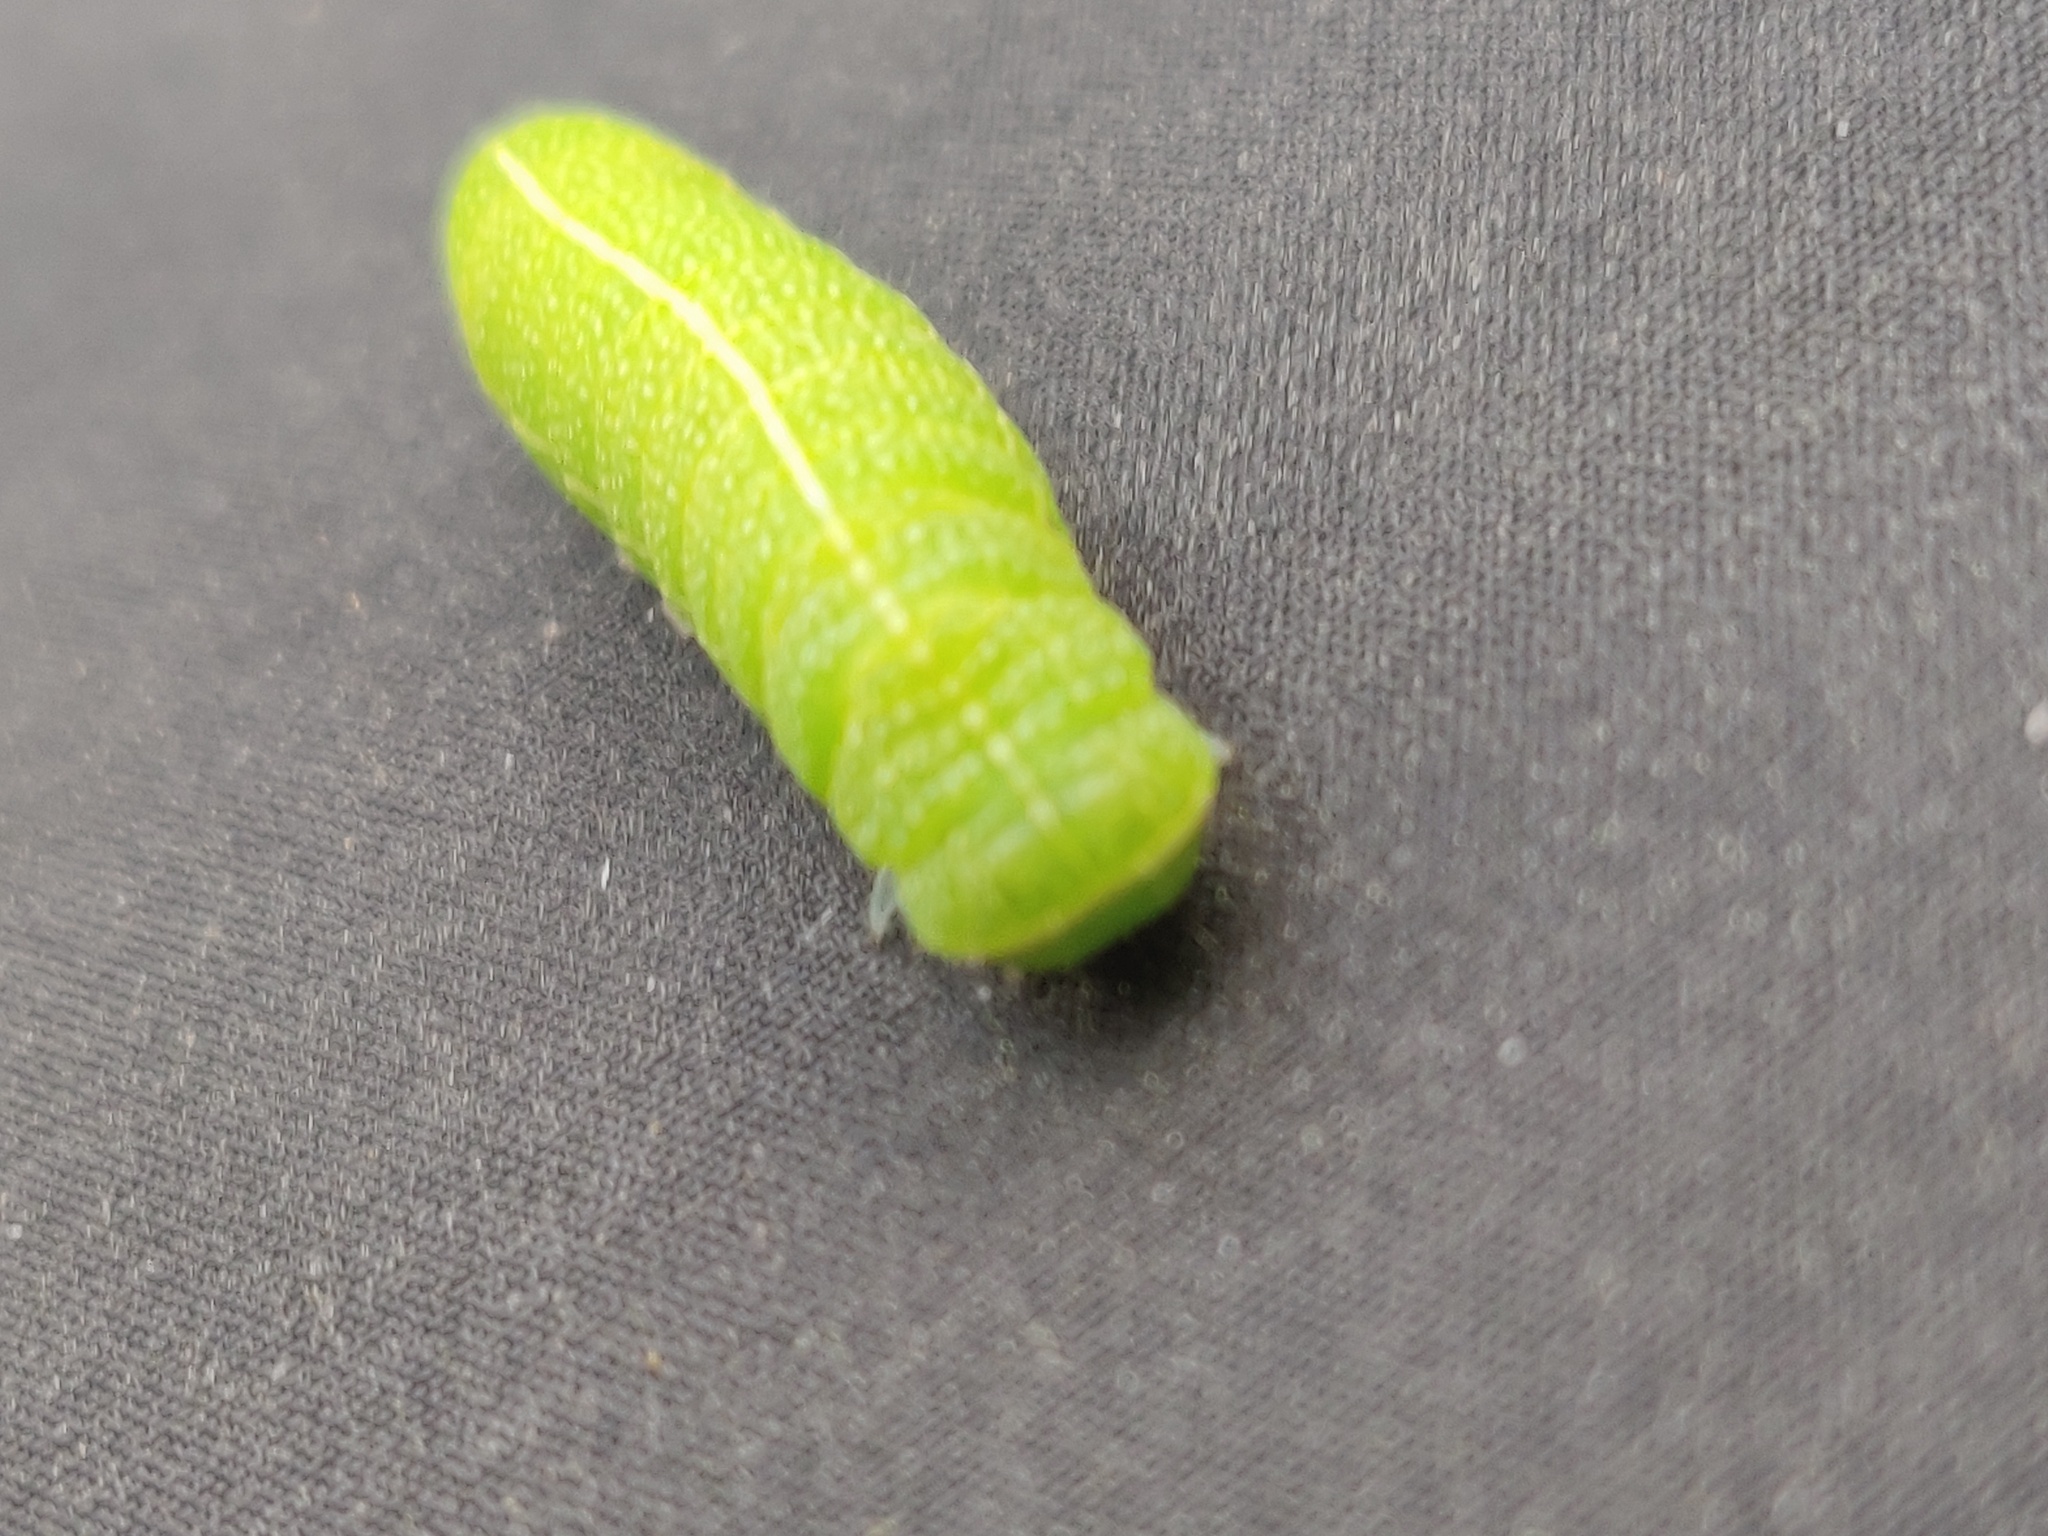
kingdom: Animalia
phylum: Arthropoda
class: Insecta
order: Lepidoptera
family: Noctuidae
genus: Orthosia
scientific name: Orthosia cerasi
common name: Common quaker
